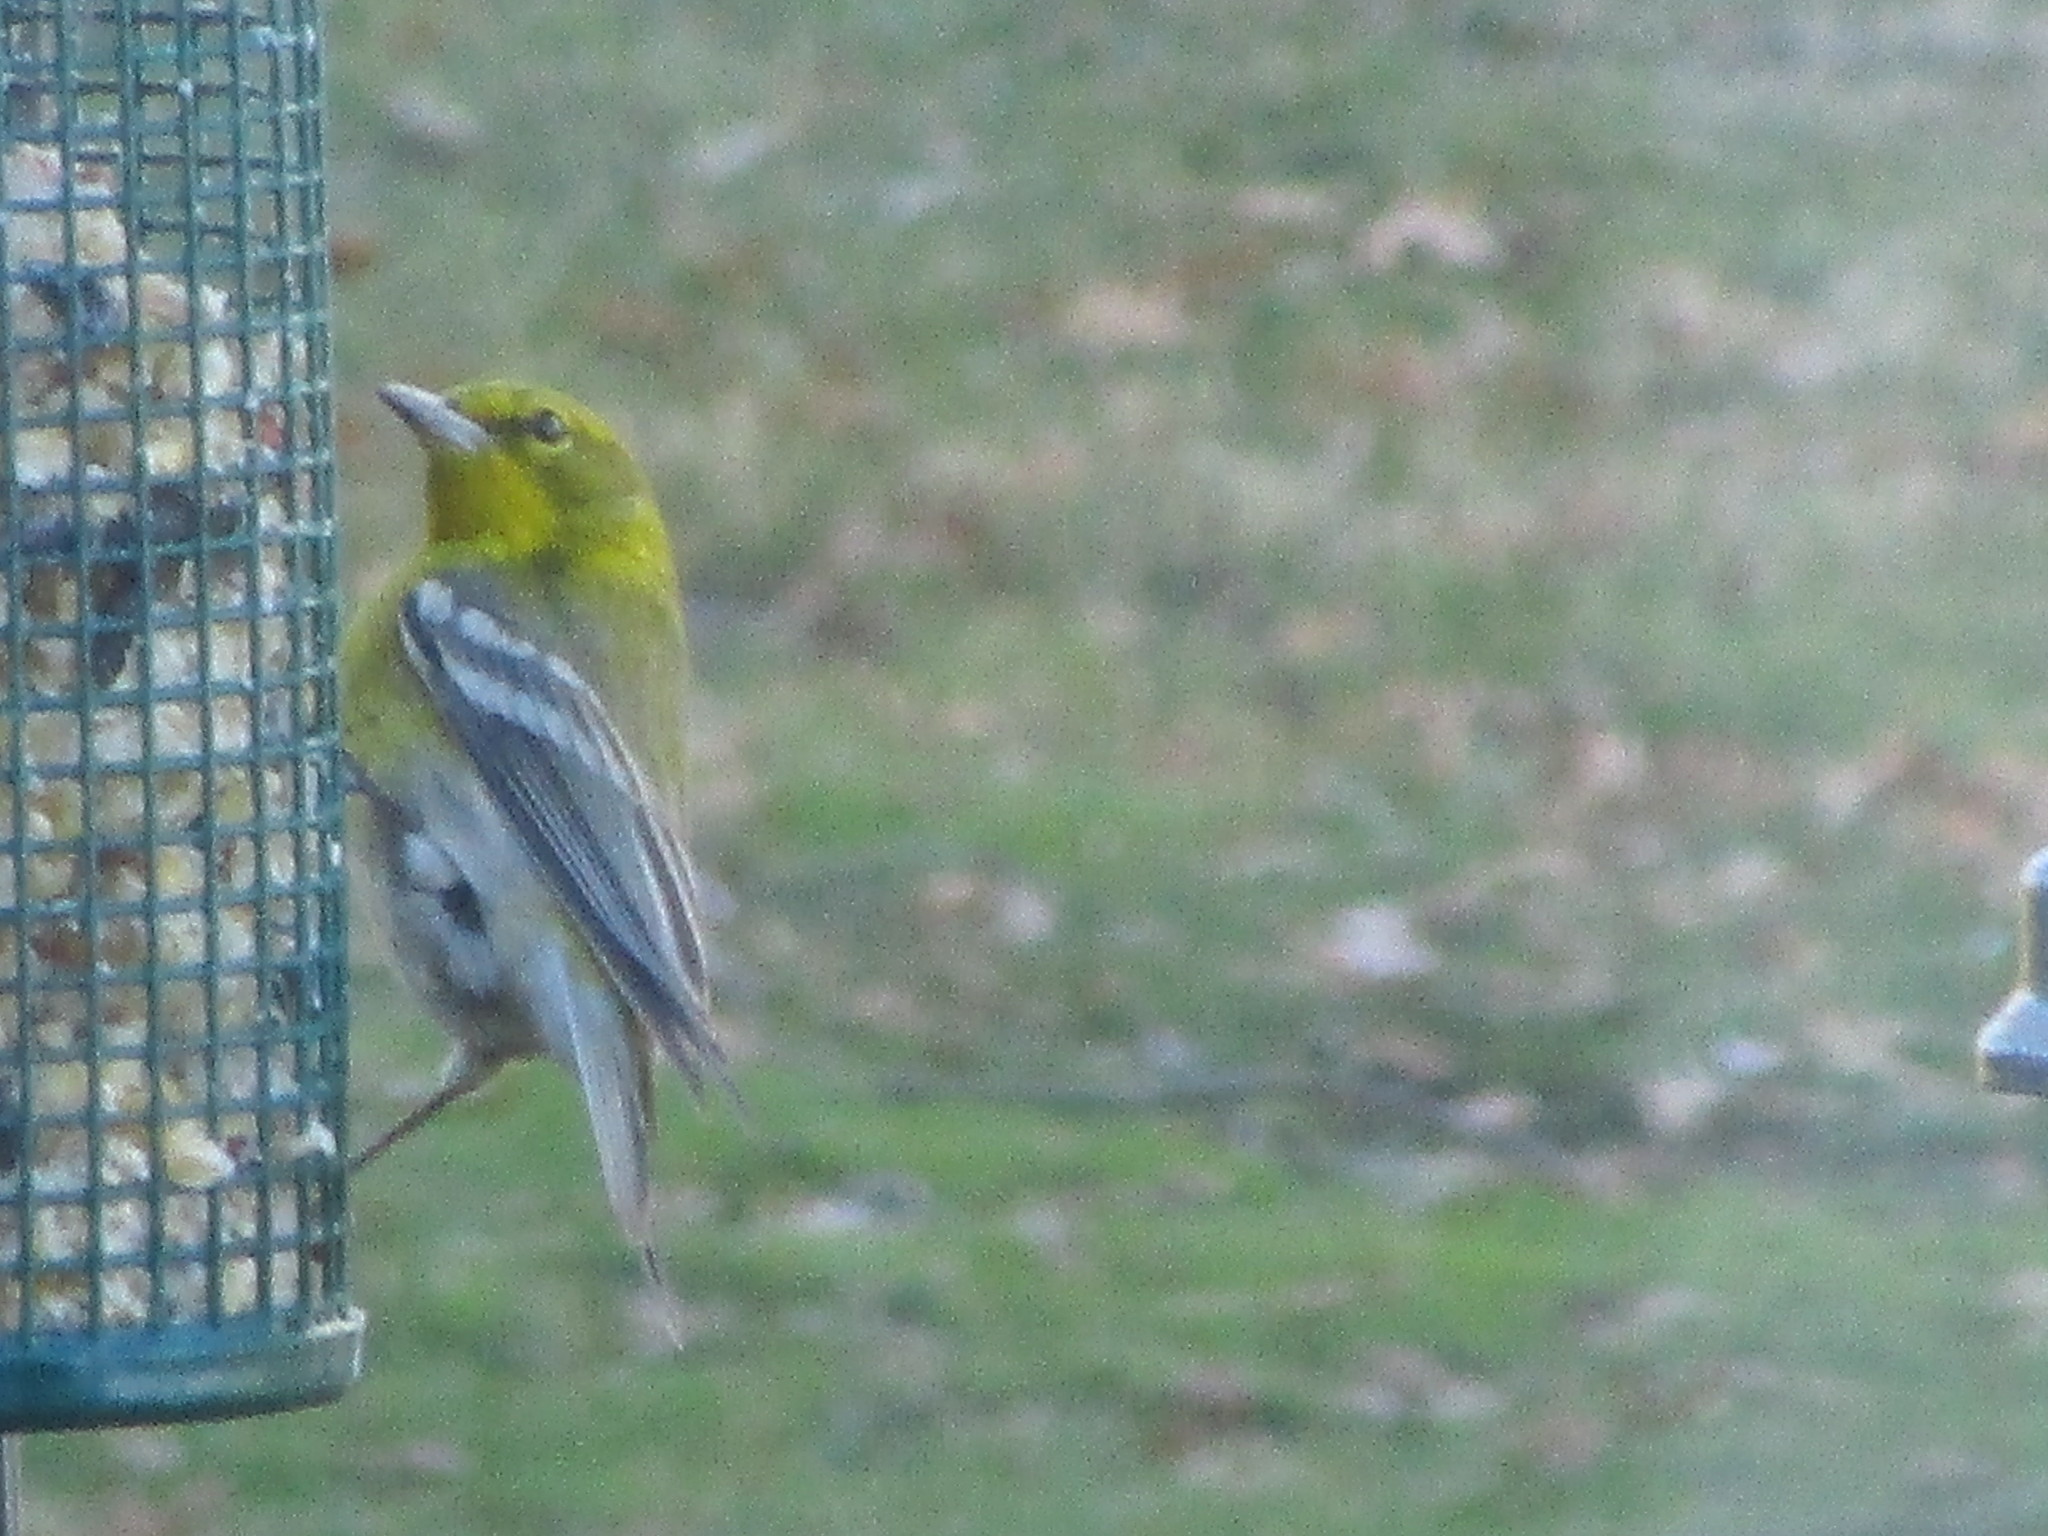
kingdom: Animalia
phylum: Chordata
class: Aves
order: Passeriformes
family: Parulidae
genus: Setophaga
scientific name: Setophaga pinus
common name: Pine warbler
